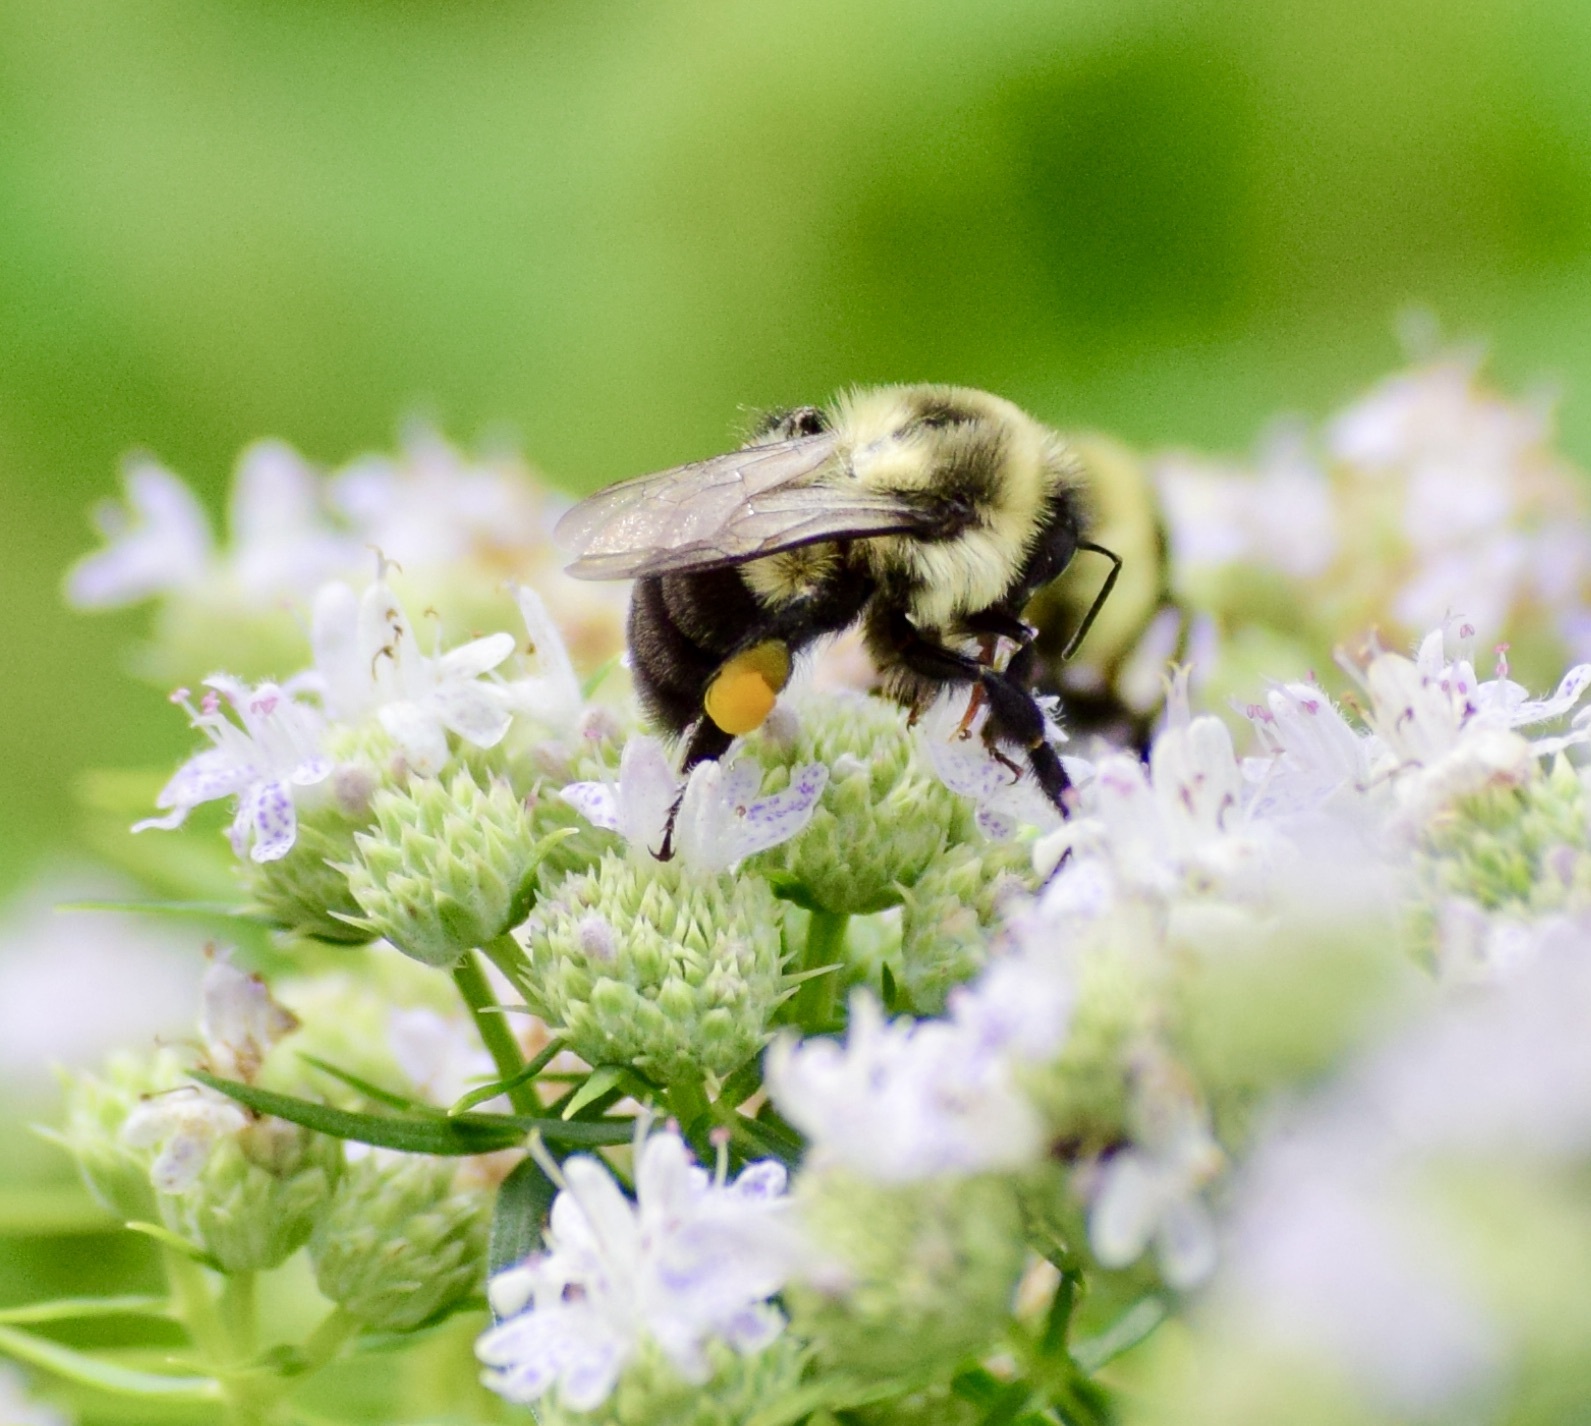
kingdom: Animalia
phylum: Arthropoda
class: Insecta
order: Hymenoptera
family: Apidae
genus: Bombus
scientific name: Bombus impatiens
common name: Common eastern bumble bee
